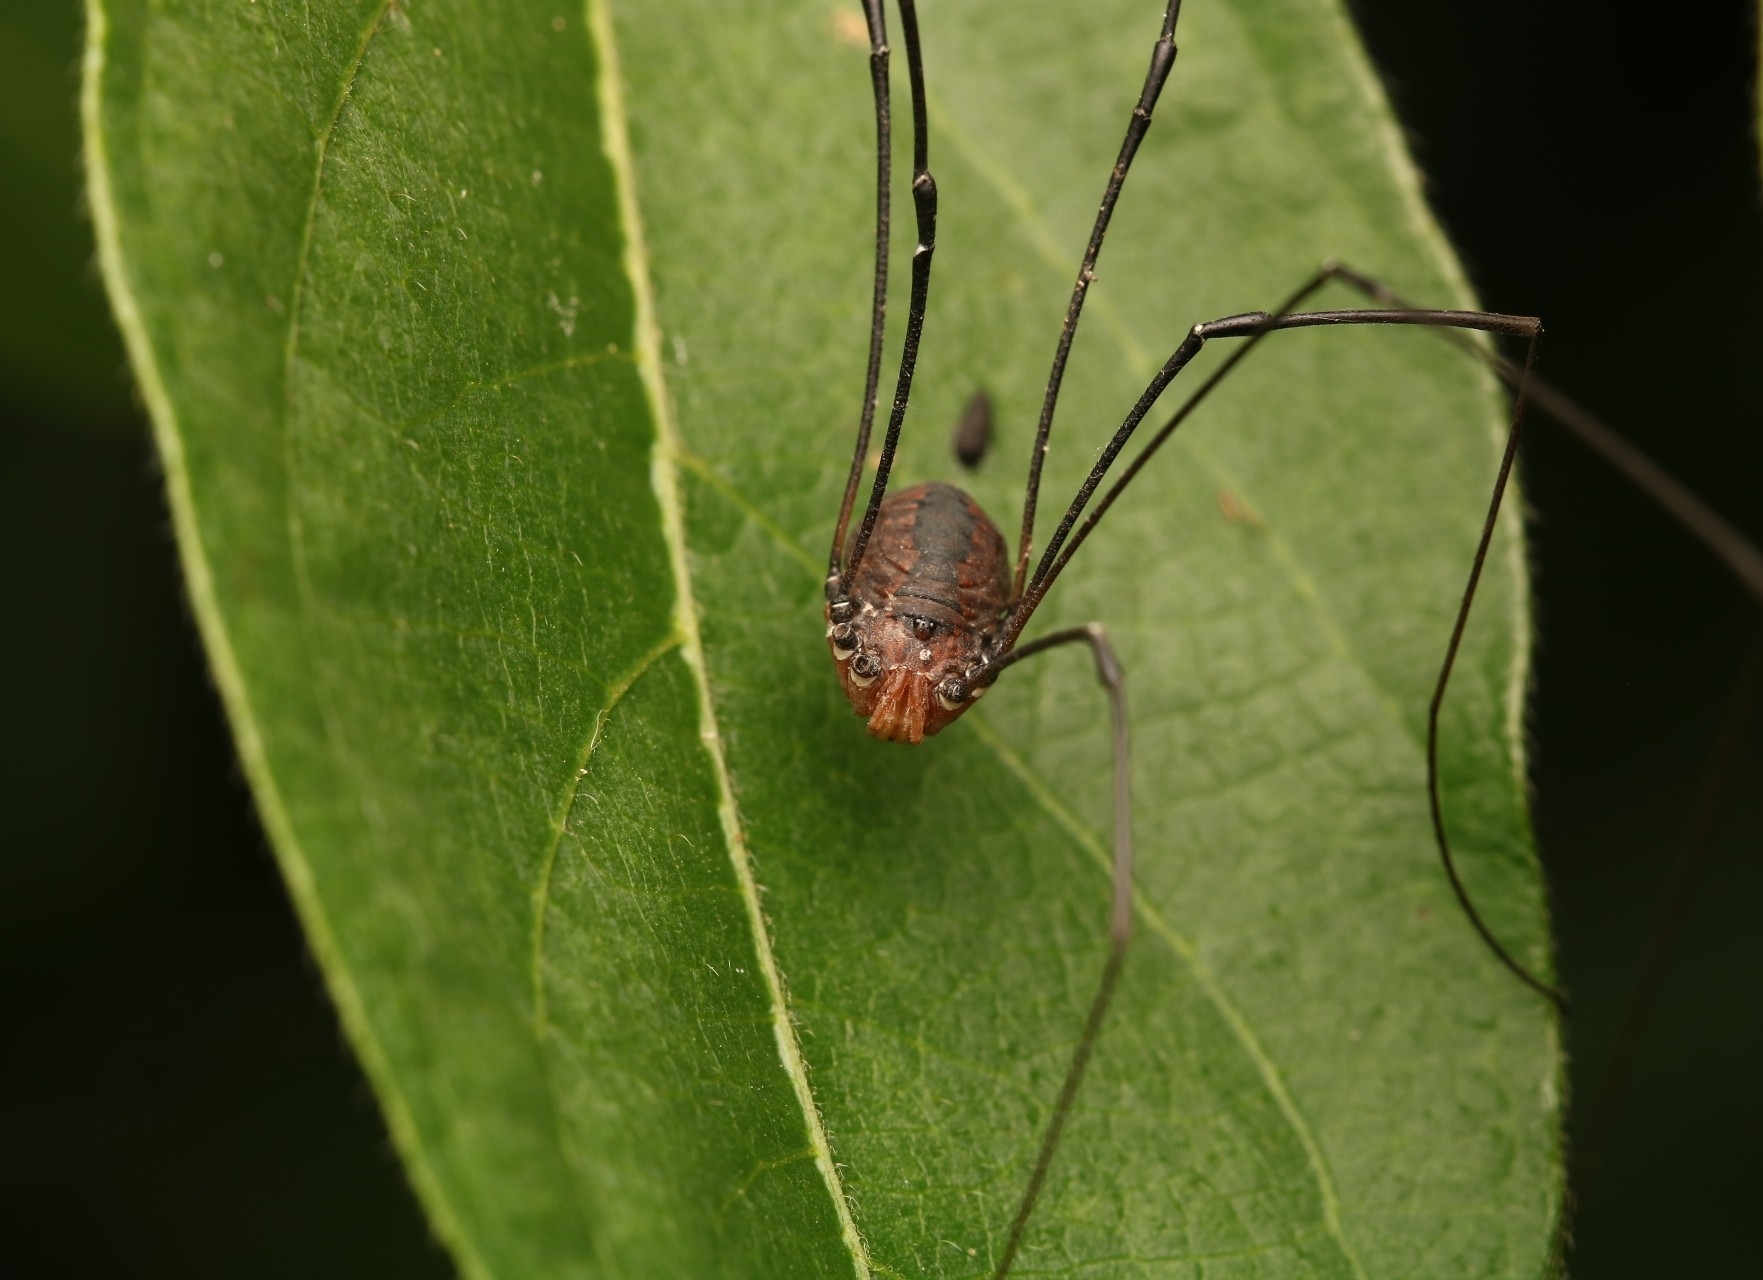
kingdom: Animalia
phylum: Arthropoda
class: Arachnida
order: Opiliones
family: Sclerosomatidae
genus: Leiobunum
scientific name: Leiobunum vittatum
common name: Eastern harvestman
